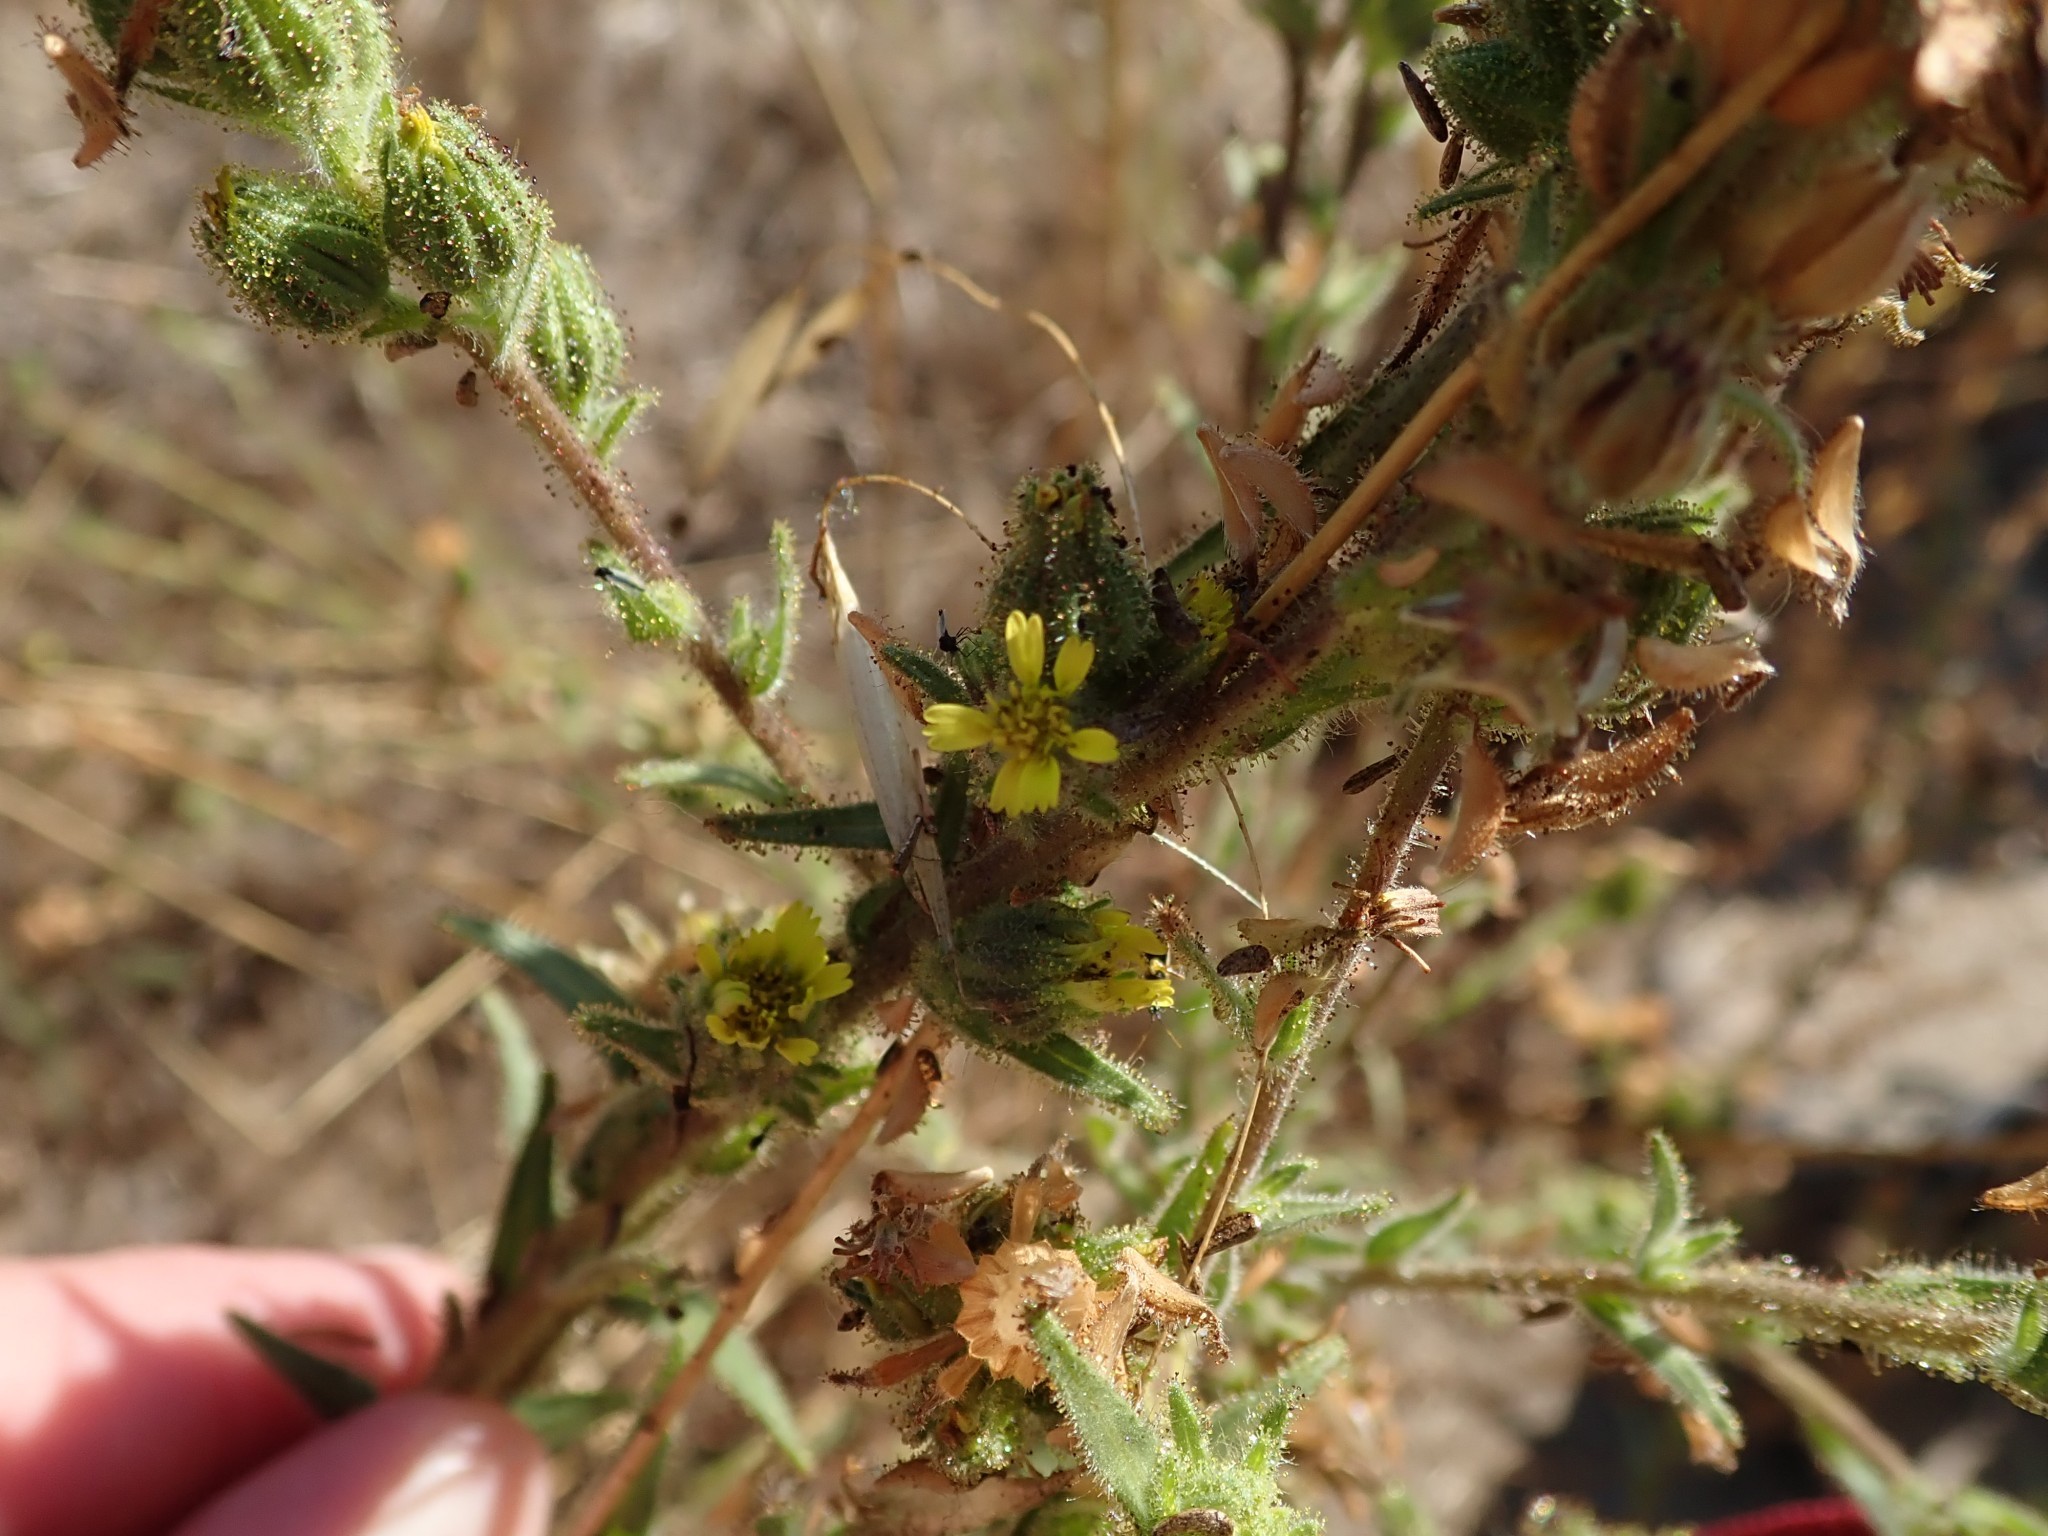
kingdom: Plantae
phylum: Tracheophyta
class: Magnoliopsida
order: Asterales
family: Asteraceae
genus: Madia
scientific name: Madia sativa
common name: Coast tarweed
